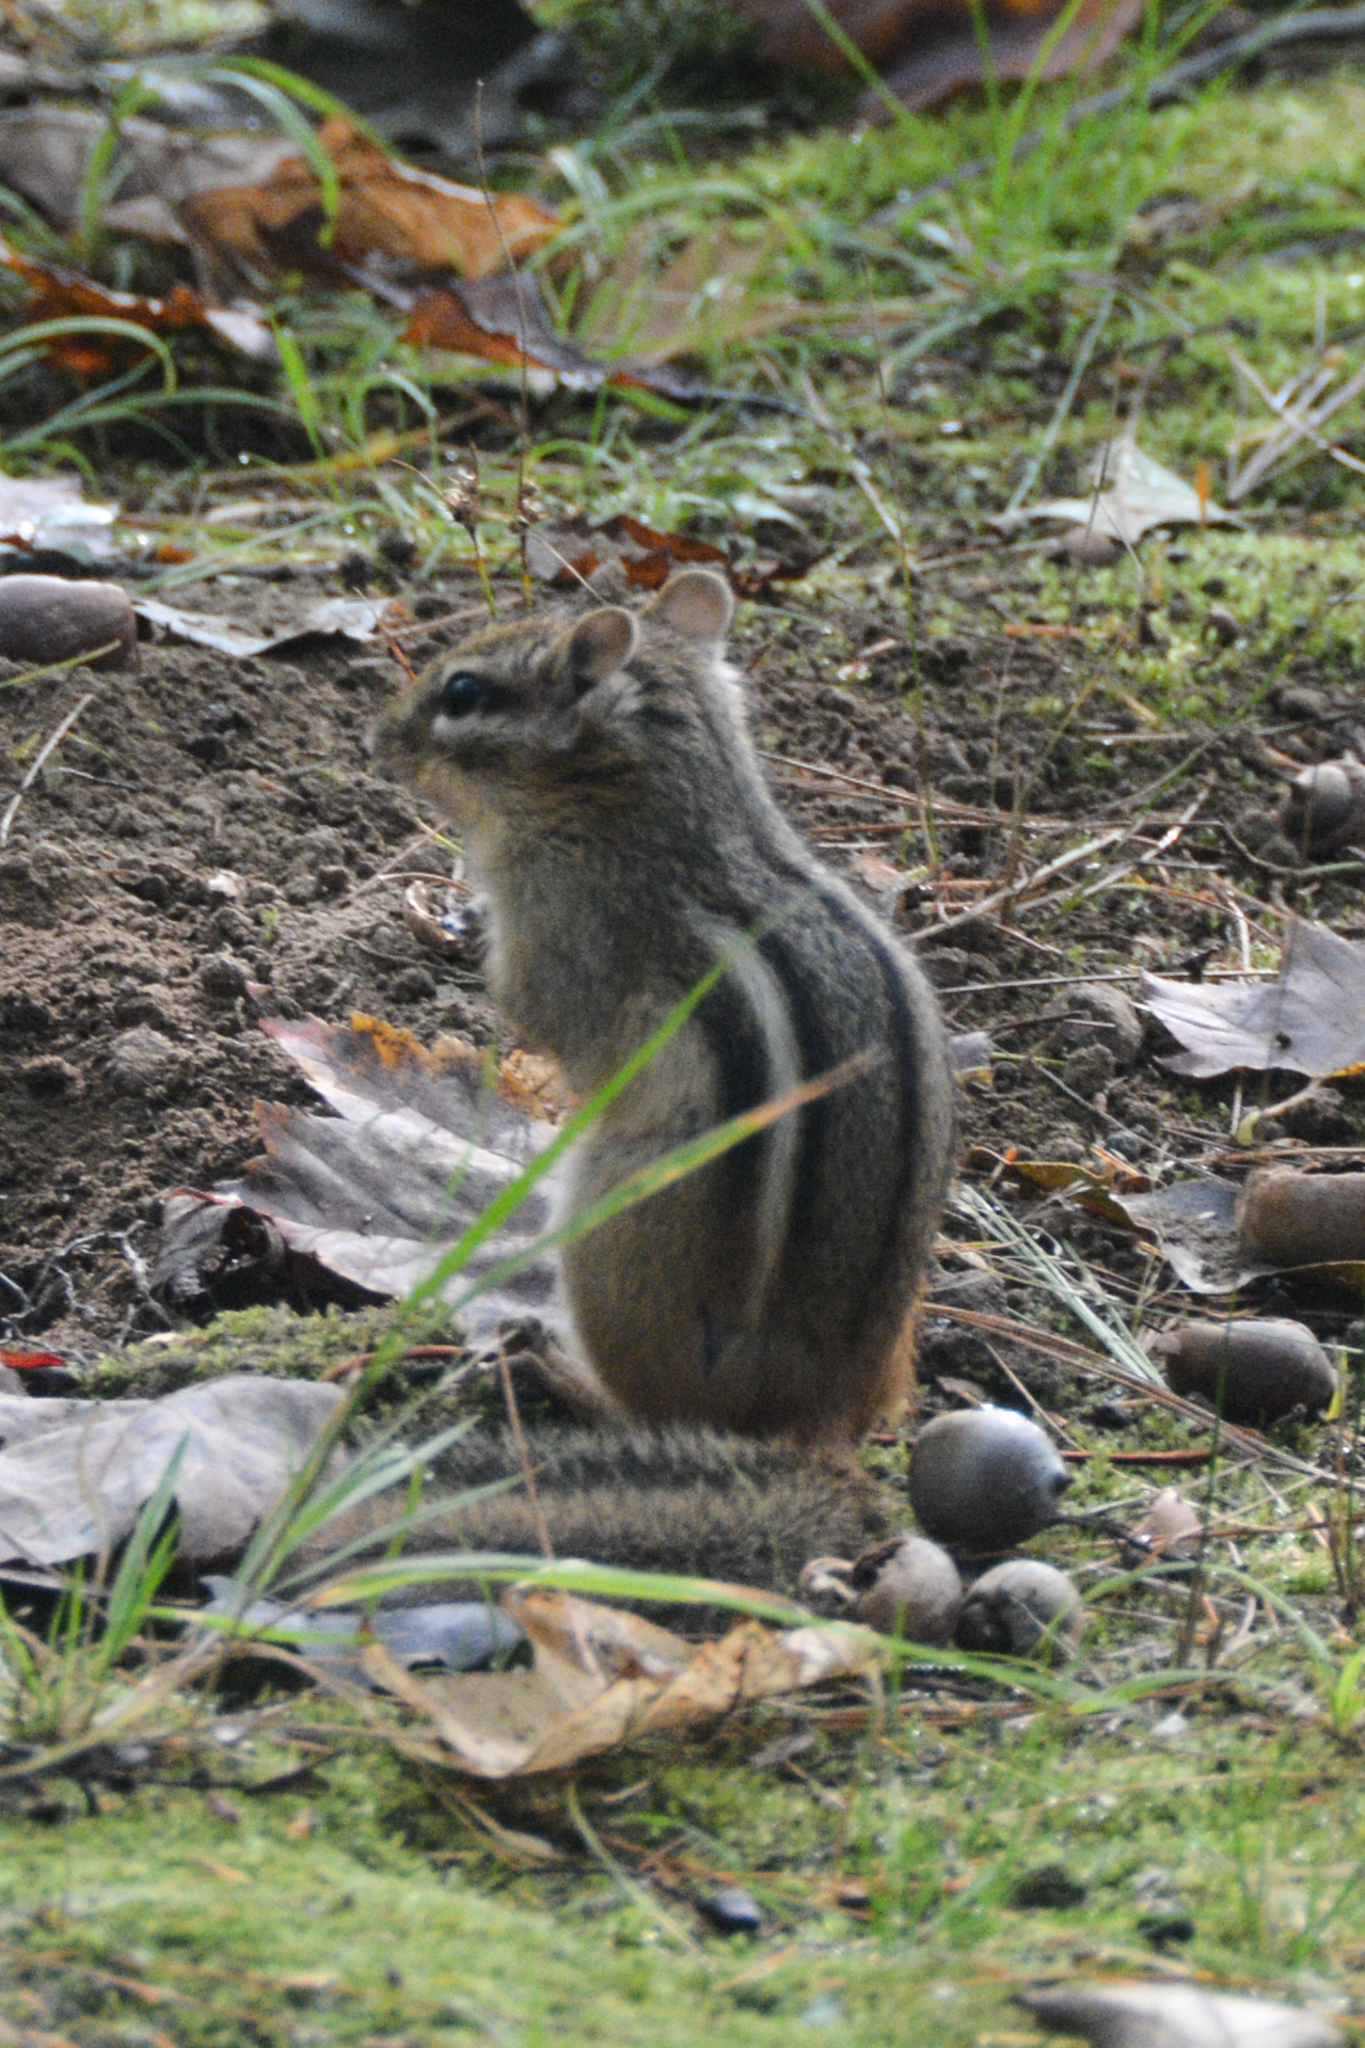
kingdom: Animalia
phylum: Chordata
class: Mammalia
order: Rodentia
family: Sciuridae
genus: Tamias
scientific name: Tamias striatus
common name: Eastern chipmunk
